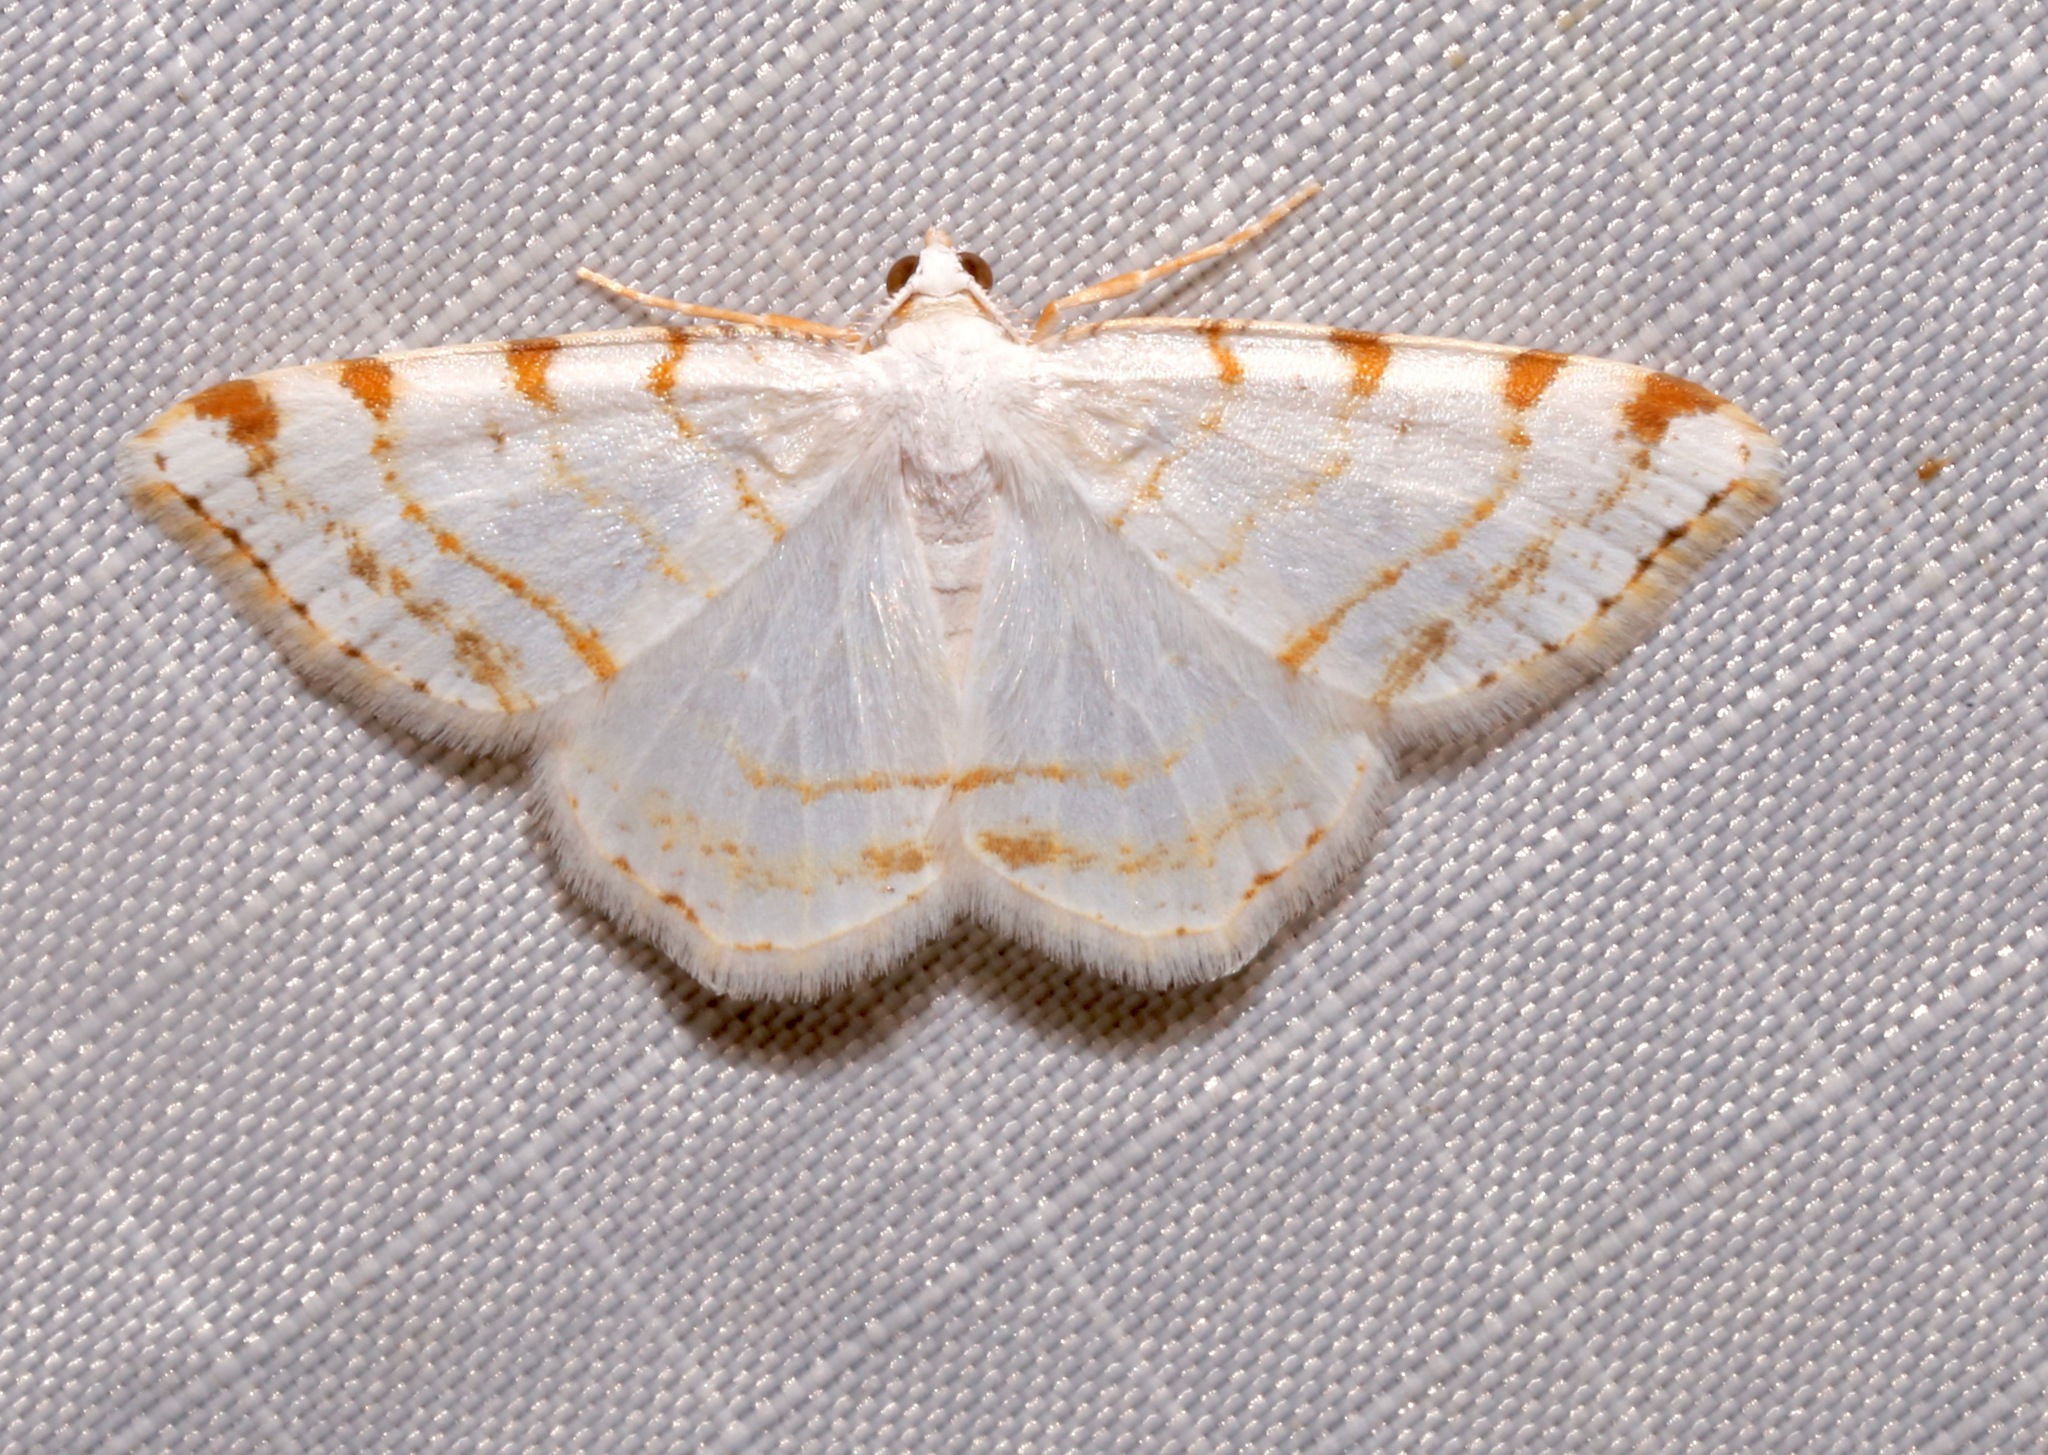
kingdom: Animalia
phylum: Arthropoda
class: Insecta
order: Lepidoptera
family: Geometridae
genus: Macaria
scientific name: Macaria pustularia
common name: Lesser maple spanworm moth
